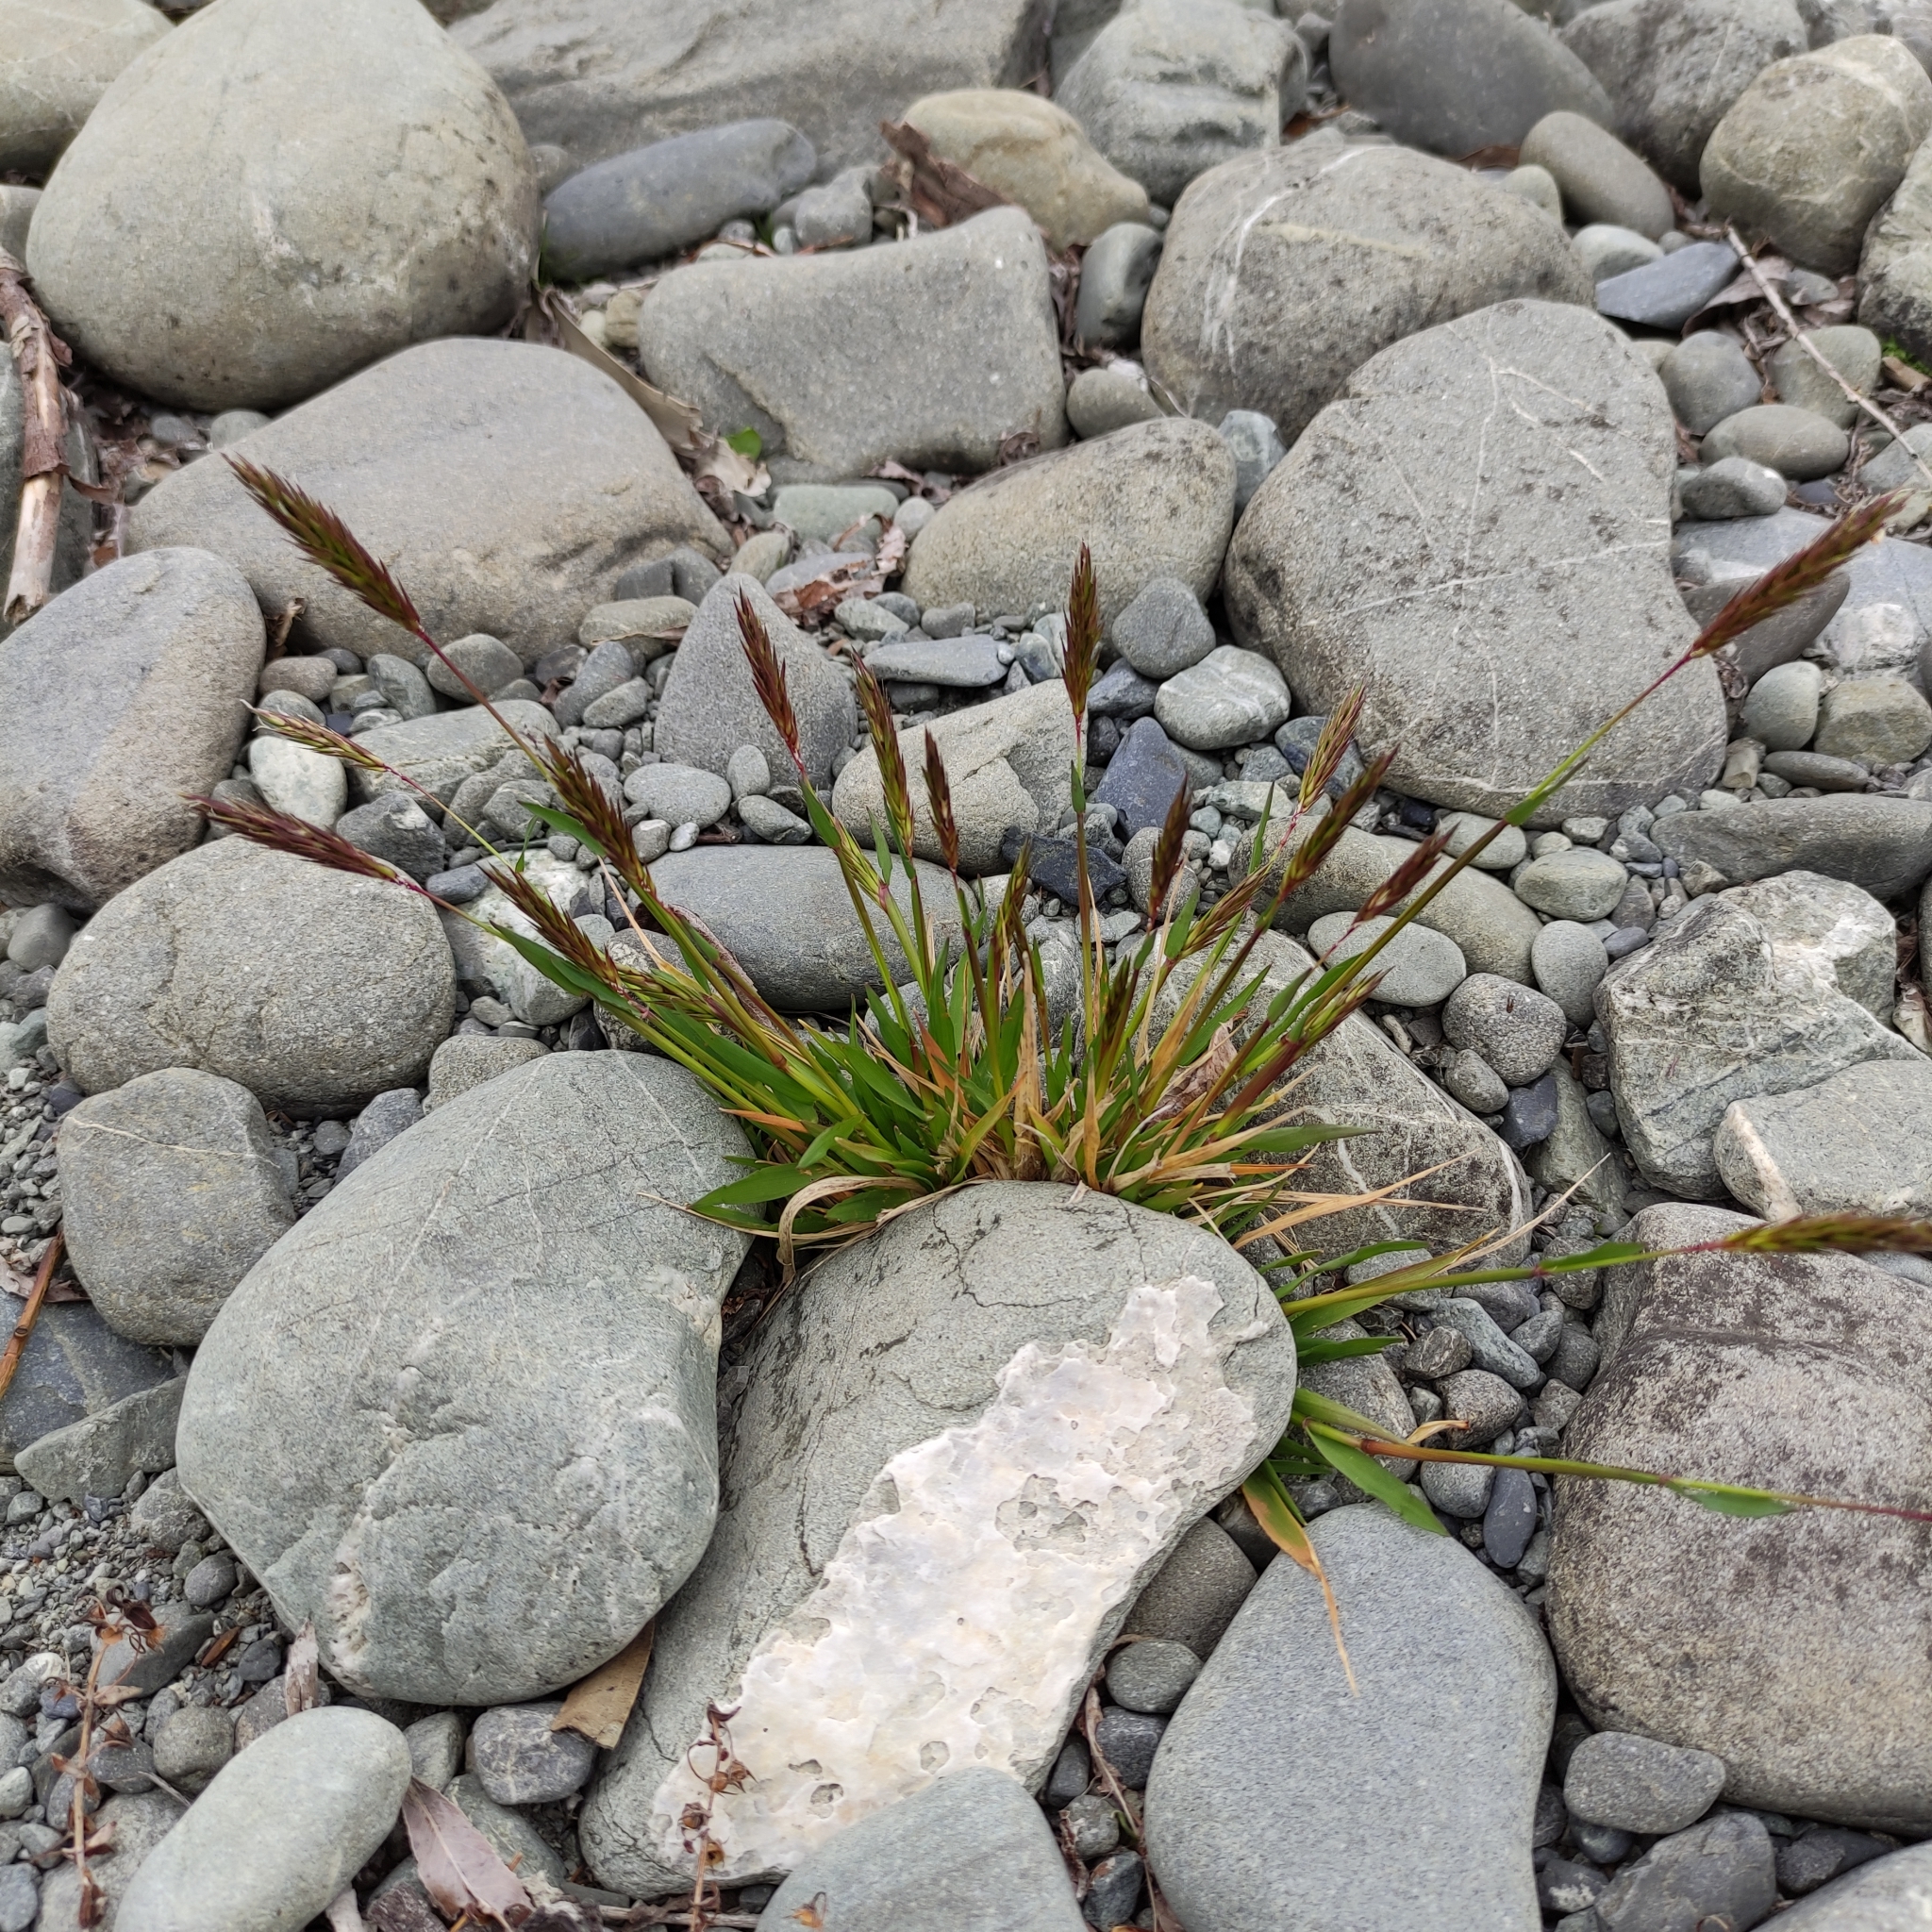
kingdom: Plantae
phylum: Tracheophyta
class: Liliopsida
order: Poales
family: Poaceae
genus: Anthoxanthum
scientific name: Anthoxanthum odoratum
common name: Sweet vernalgrass
